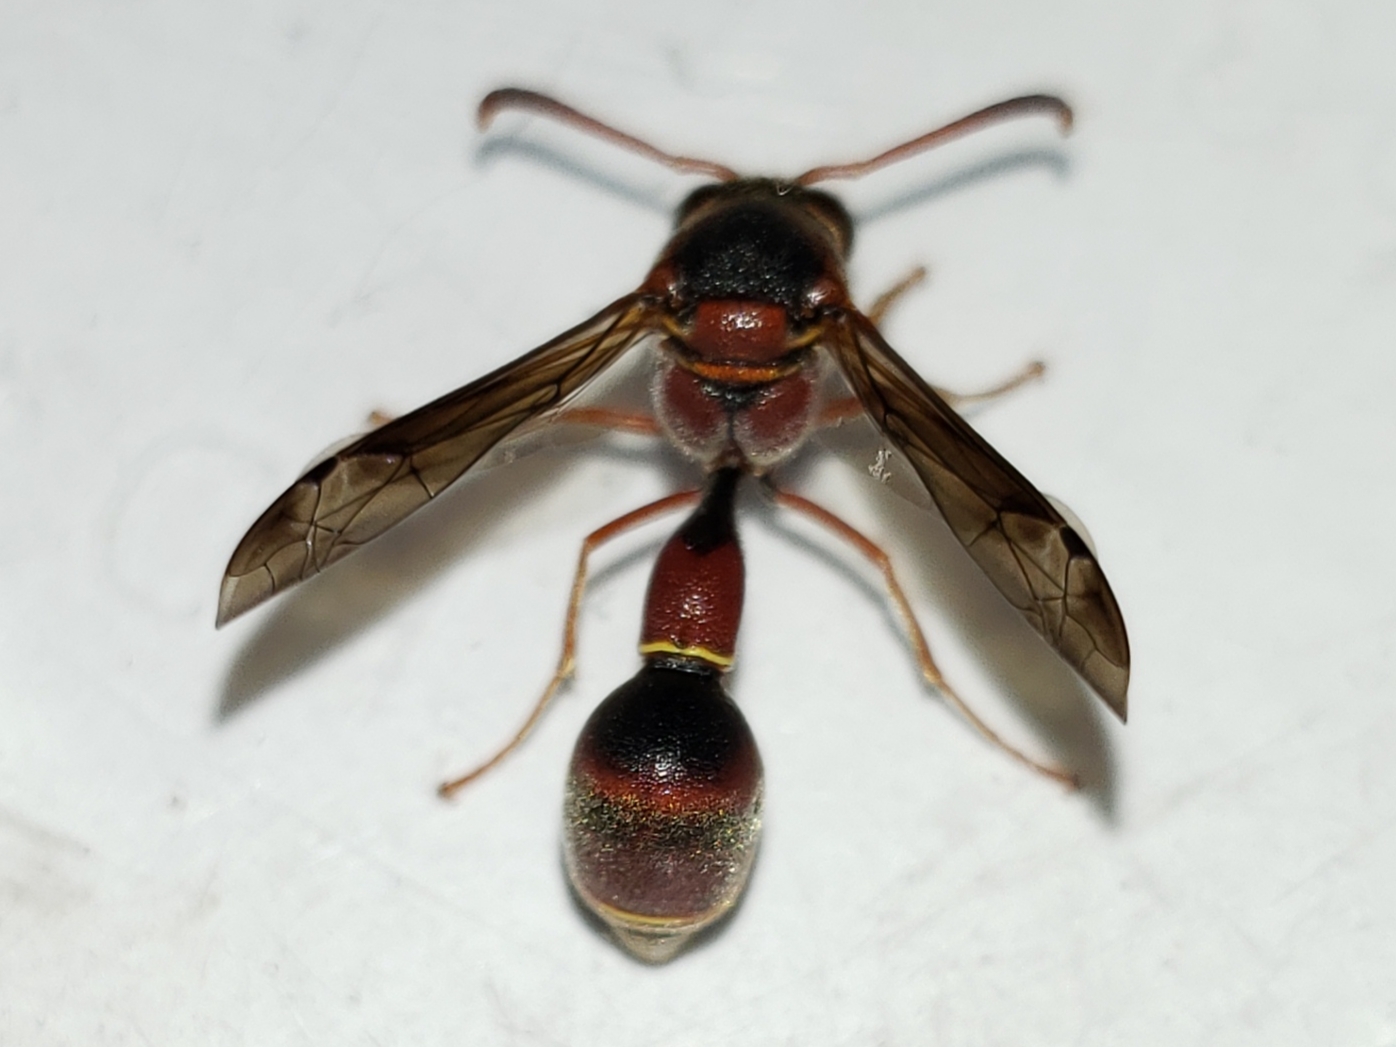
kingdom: Animalia
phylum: Arthropoda
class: Insecta
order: Hymenoptera
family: Vespidae
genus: Eumenes
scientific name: Eumenes smithii
